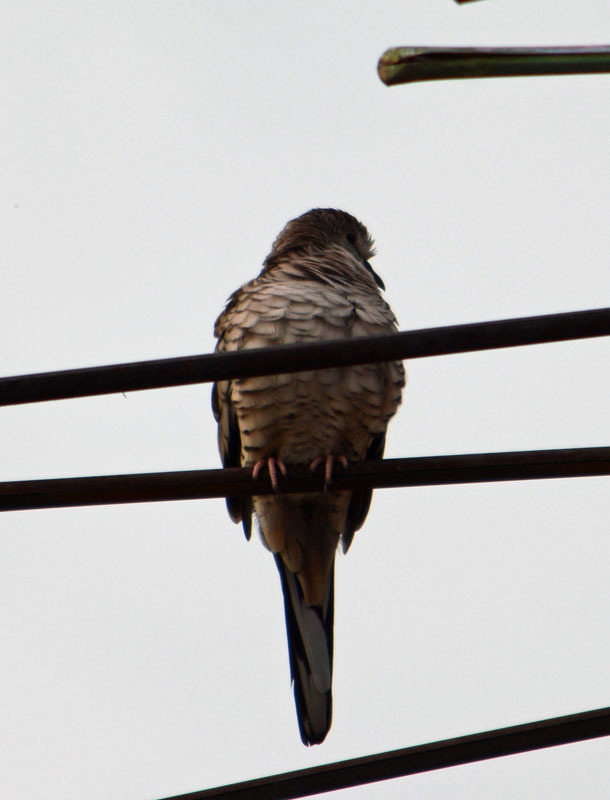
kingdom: Animalia
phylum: Chordata
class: Aves
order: Columbiformes
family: Columbidae
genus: Columbina
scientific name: Columbina inca
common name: Inca dove
